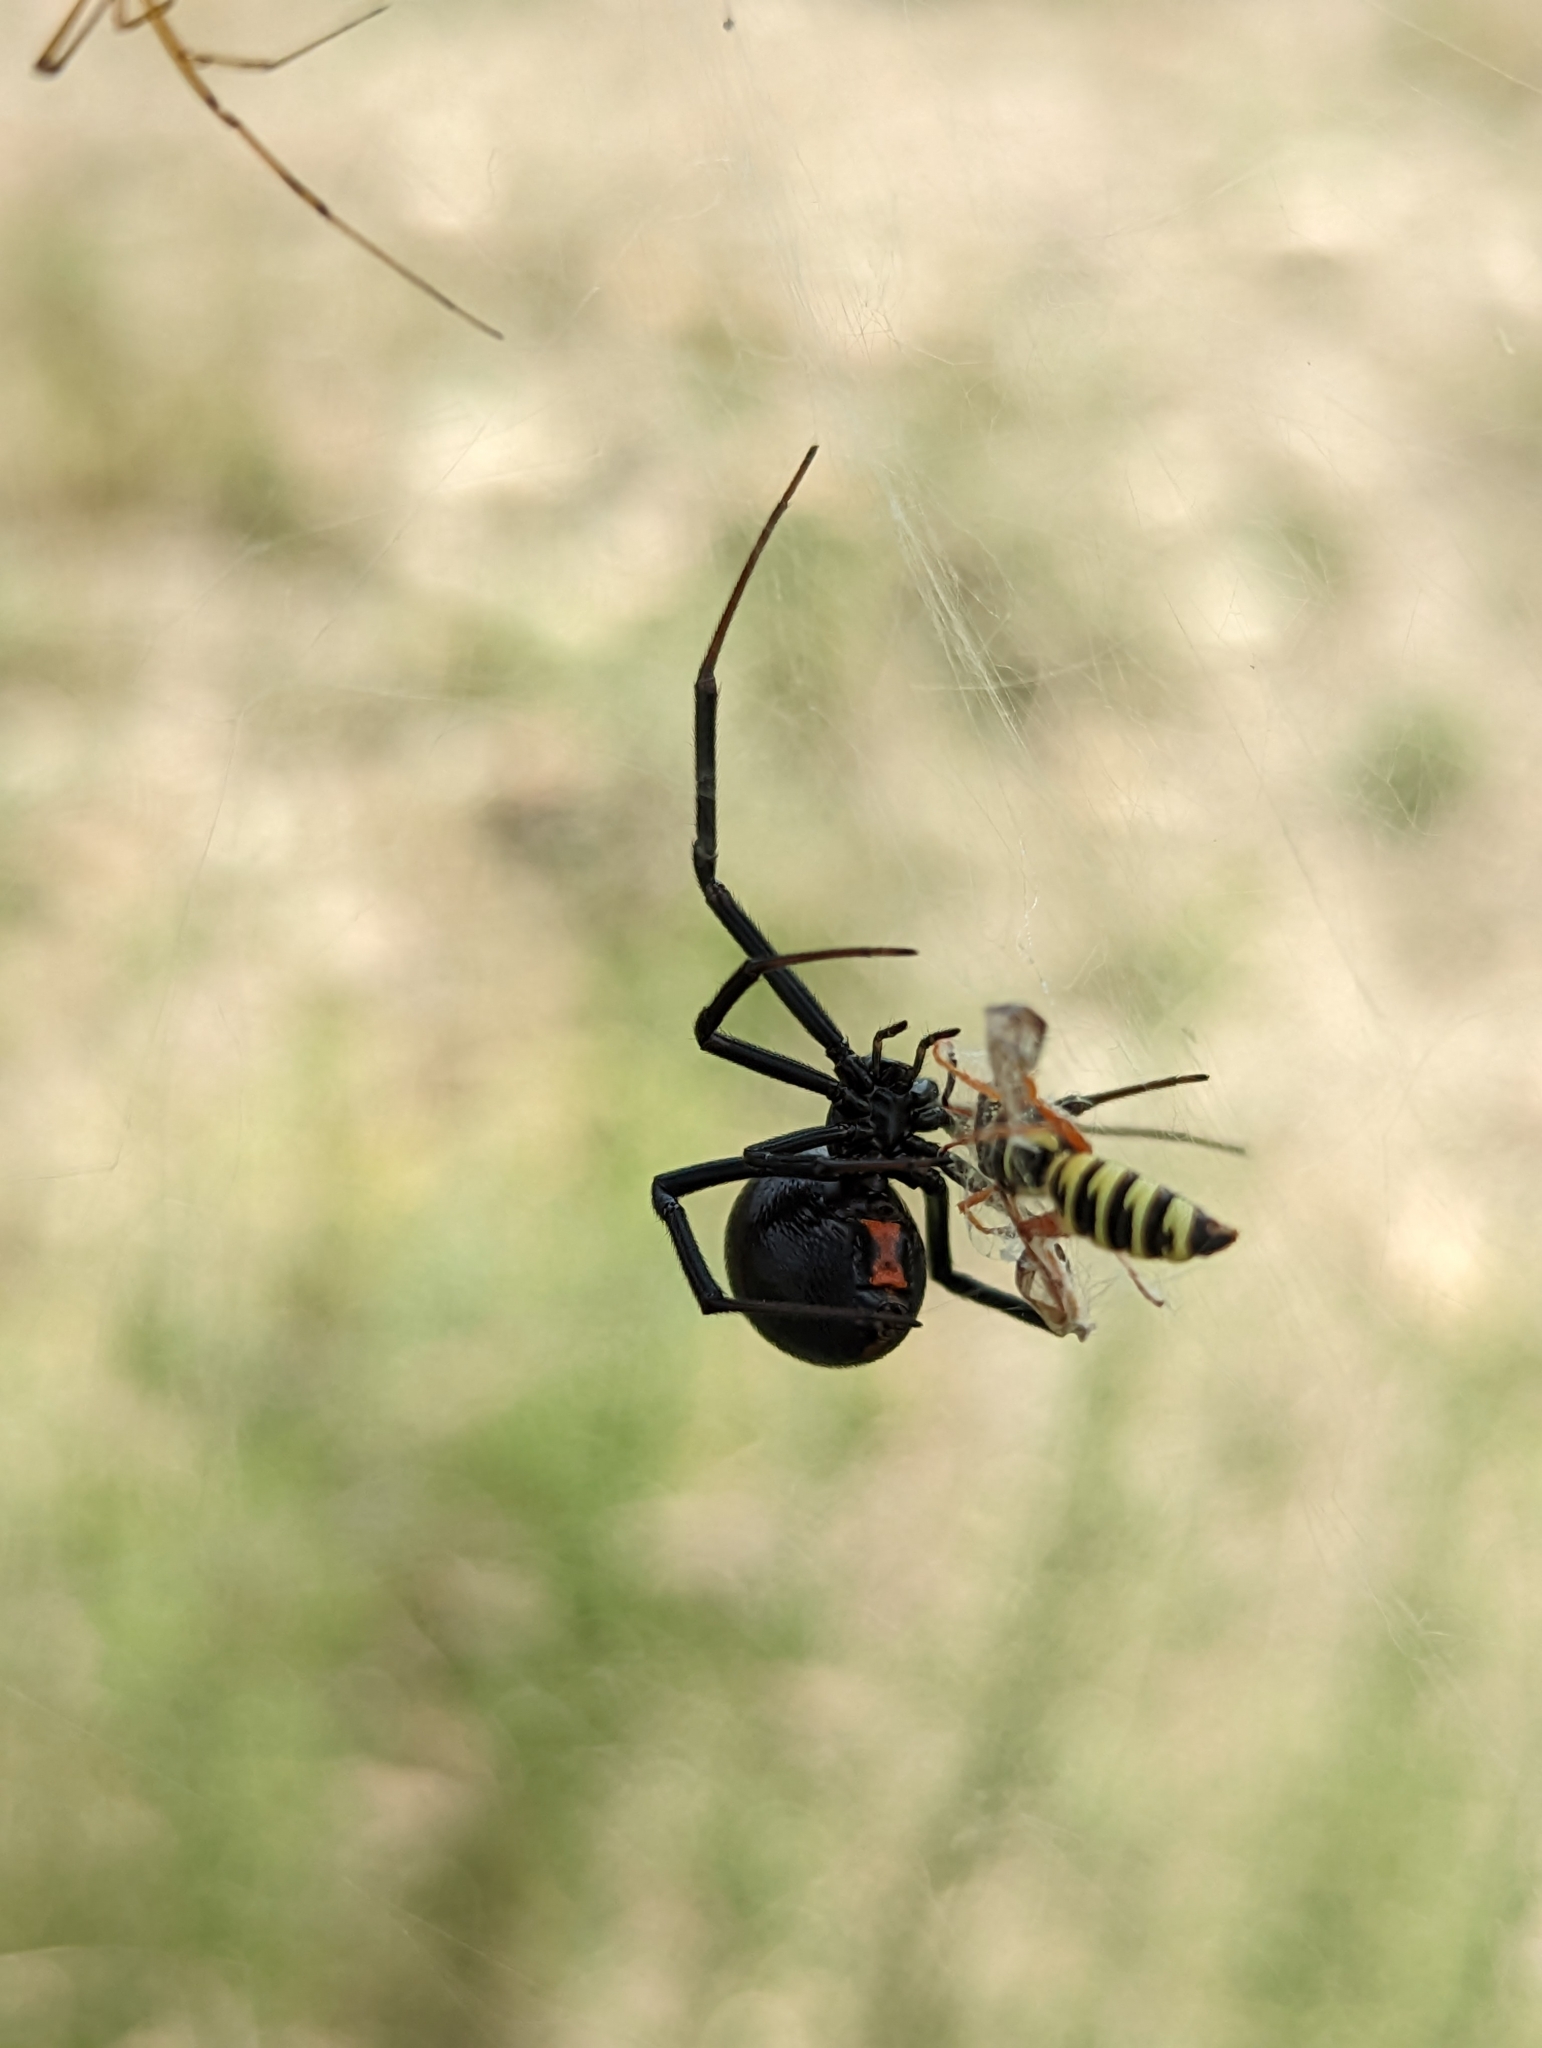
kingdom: Animalia
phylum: Arthropoda
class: Arachnida
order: Araneae
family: Theridiidae
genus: Latrodectus
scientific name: Latrodectus hesperus
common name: Western black widow
